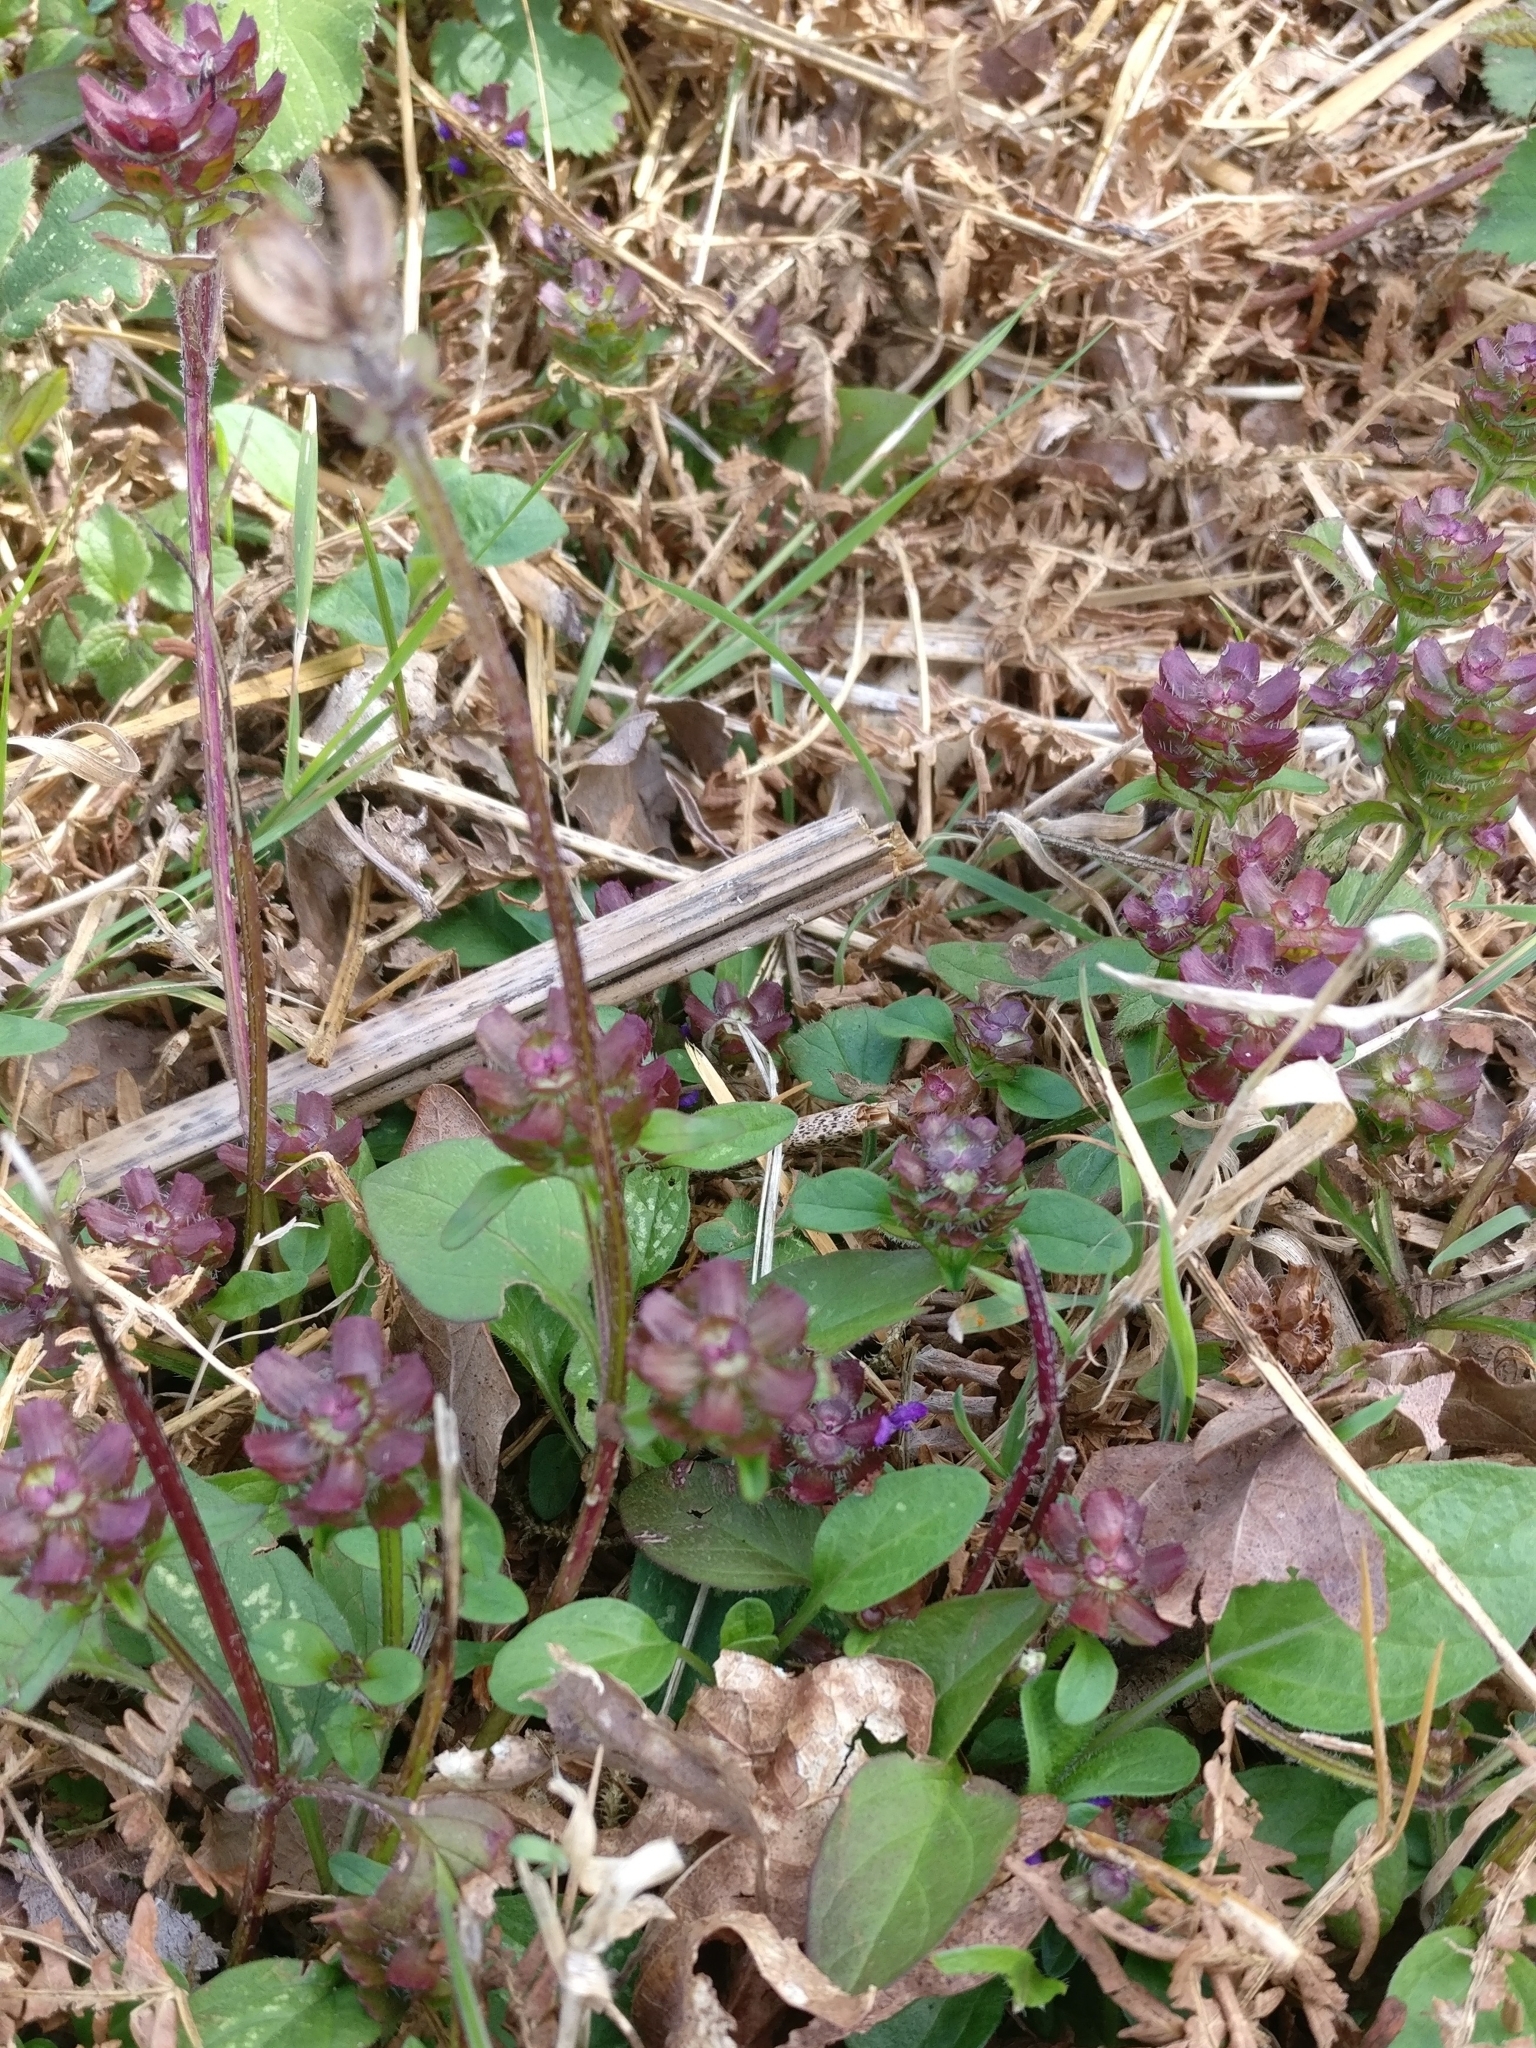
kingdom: Plantae
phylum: Tracheophyta
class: Magnoliopsida
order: Lamiales
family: Lamiaceae
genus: Prunella
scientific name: Prunella vulgaris
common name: Heal-all
